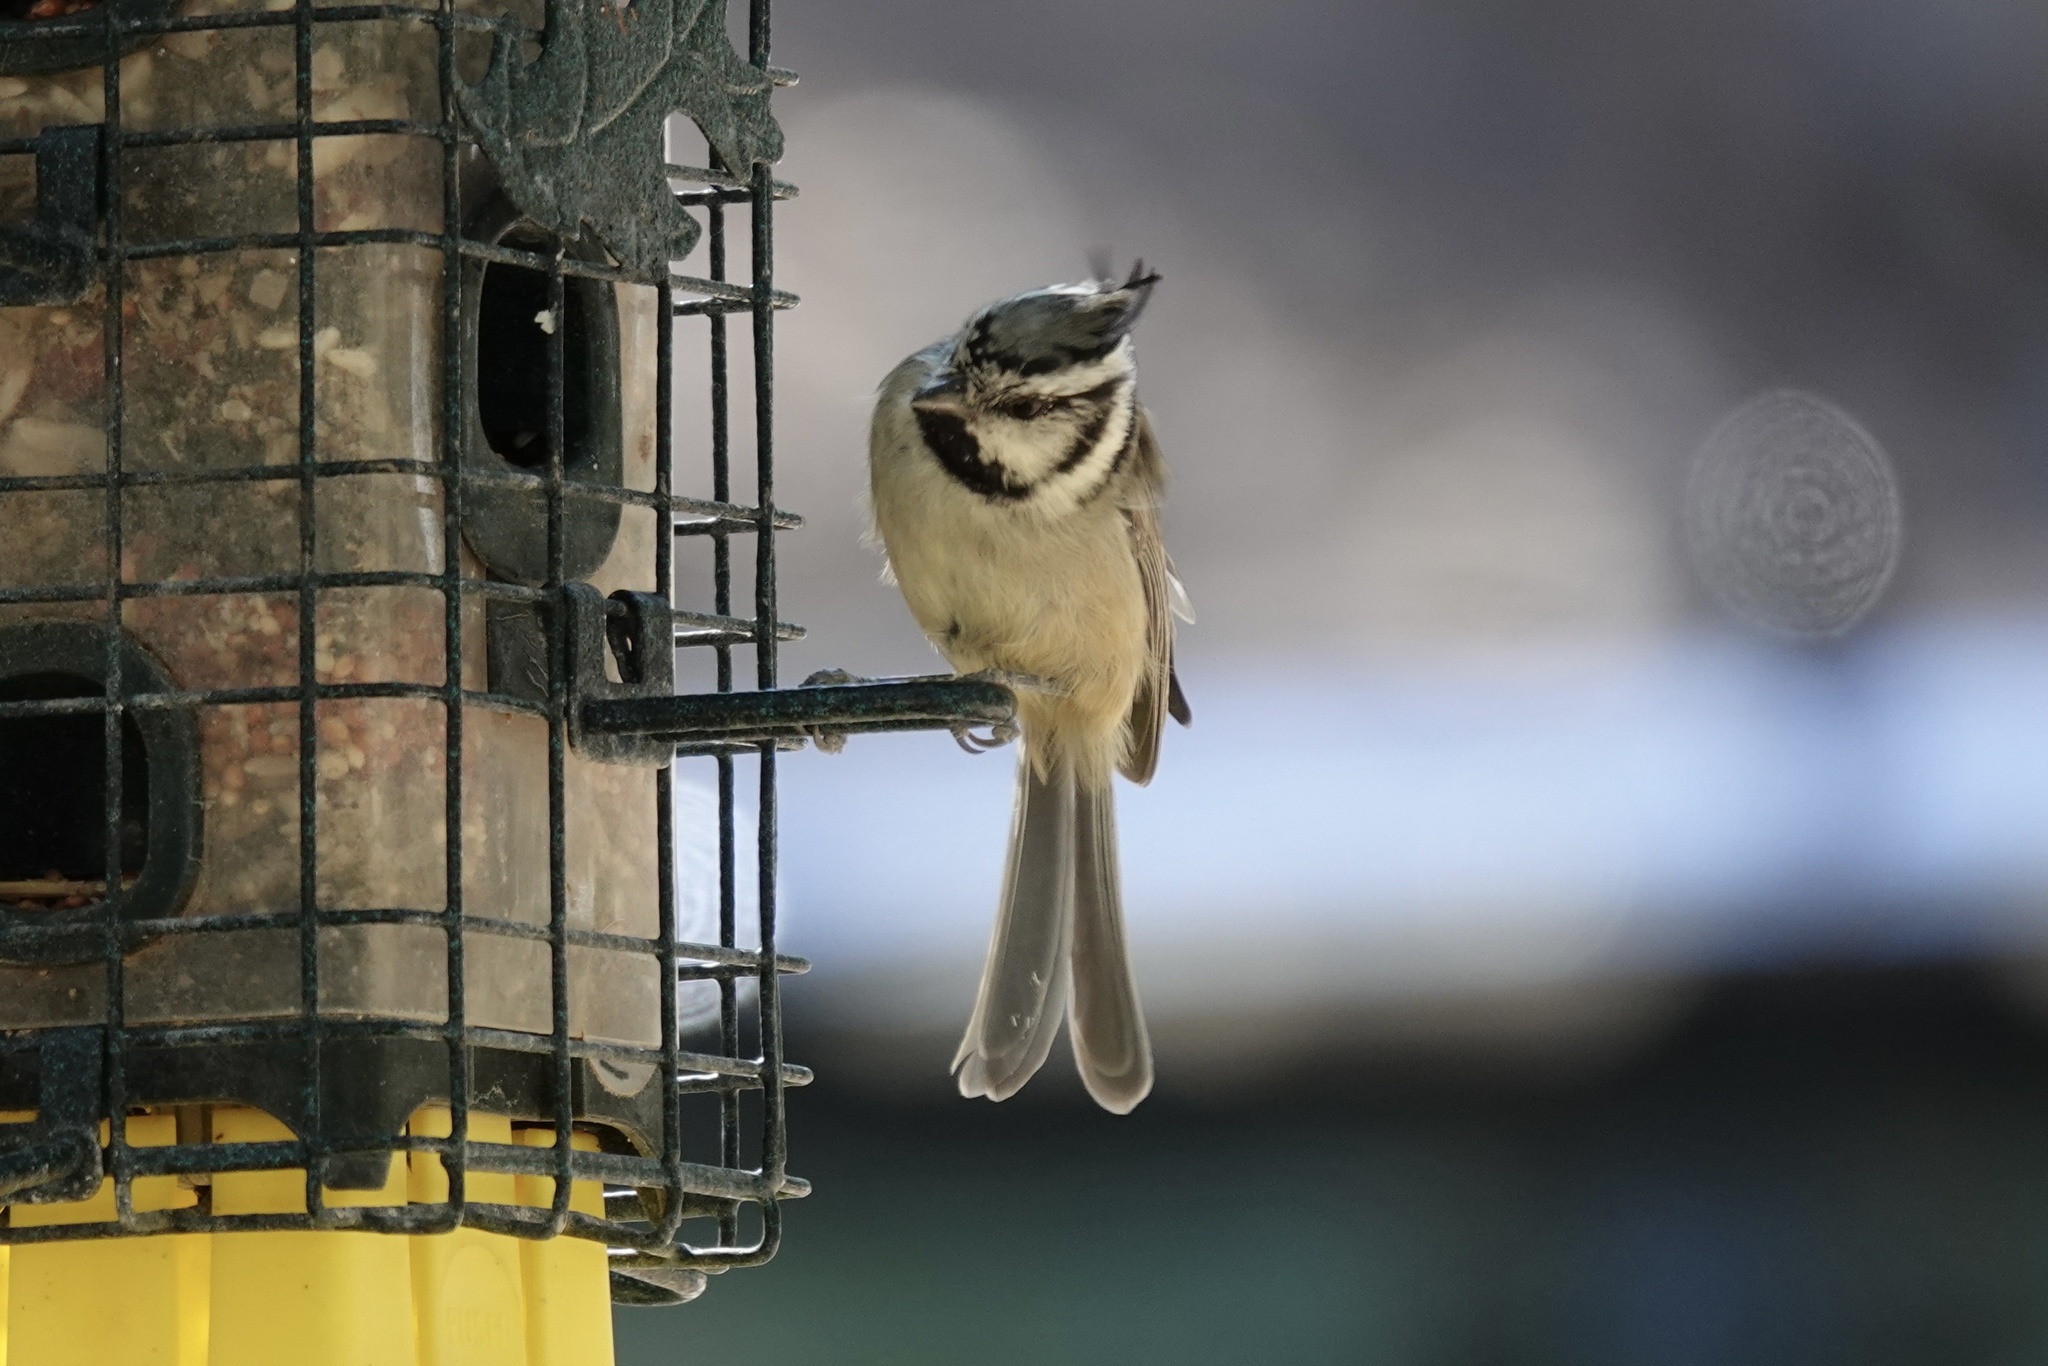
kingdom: Animalia
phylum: Chordata
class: Aves
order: Passeriformes
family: Paridae
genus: Baeolophus
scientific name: Baeolophus wollweberi
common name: Bridled titmouse
